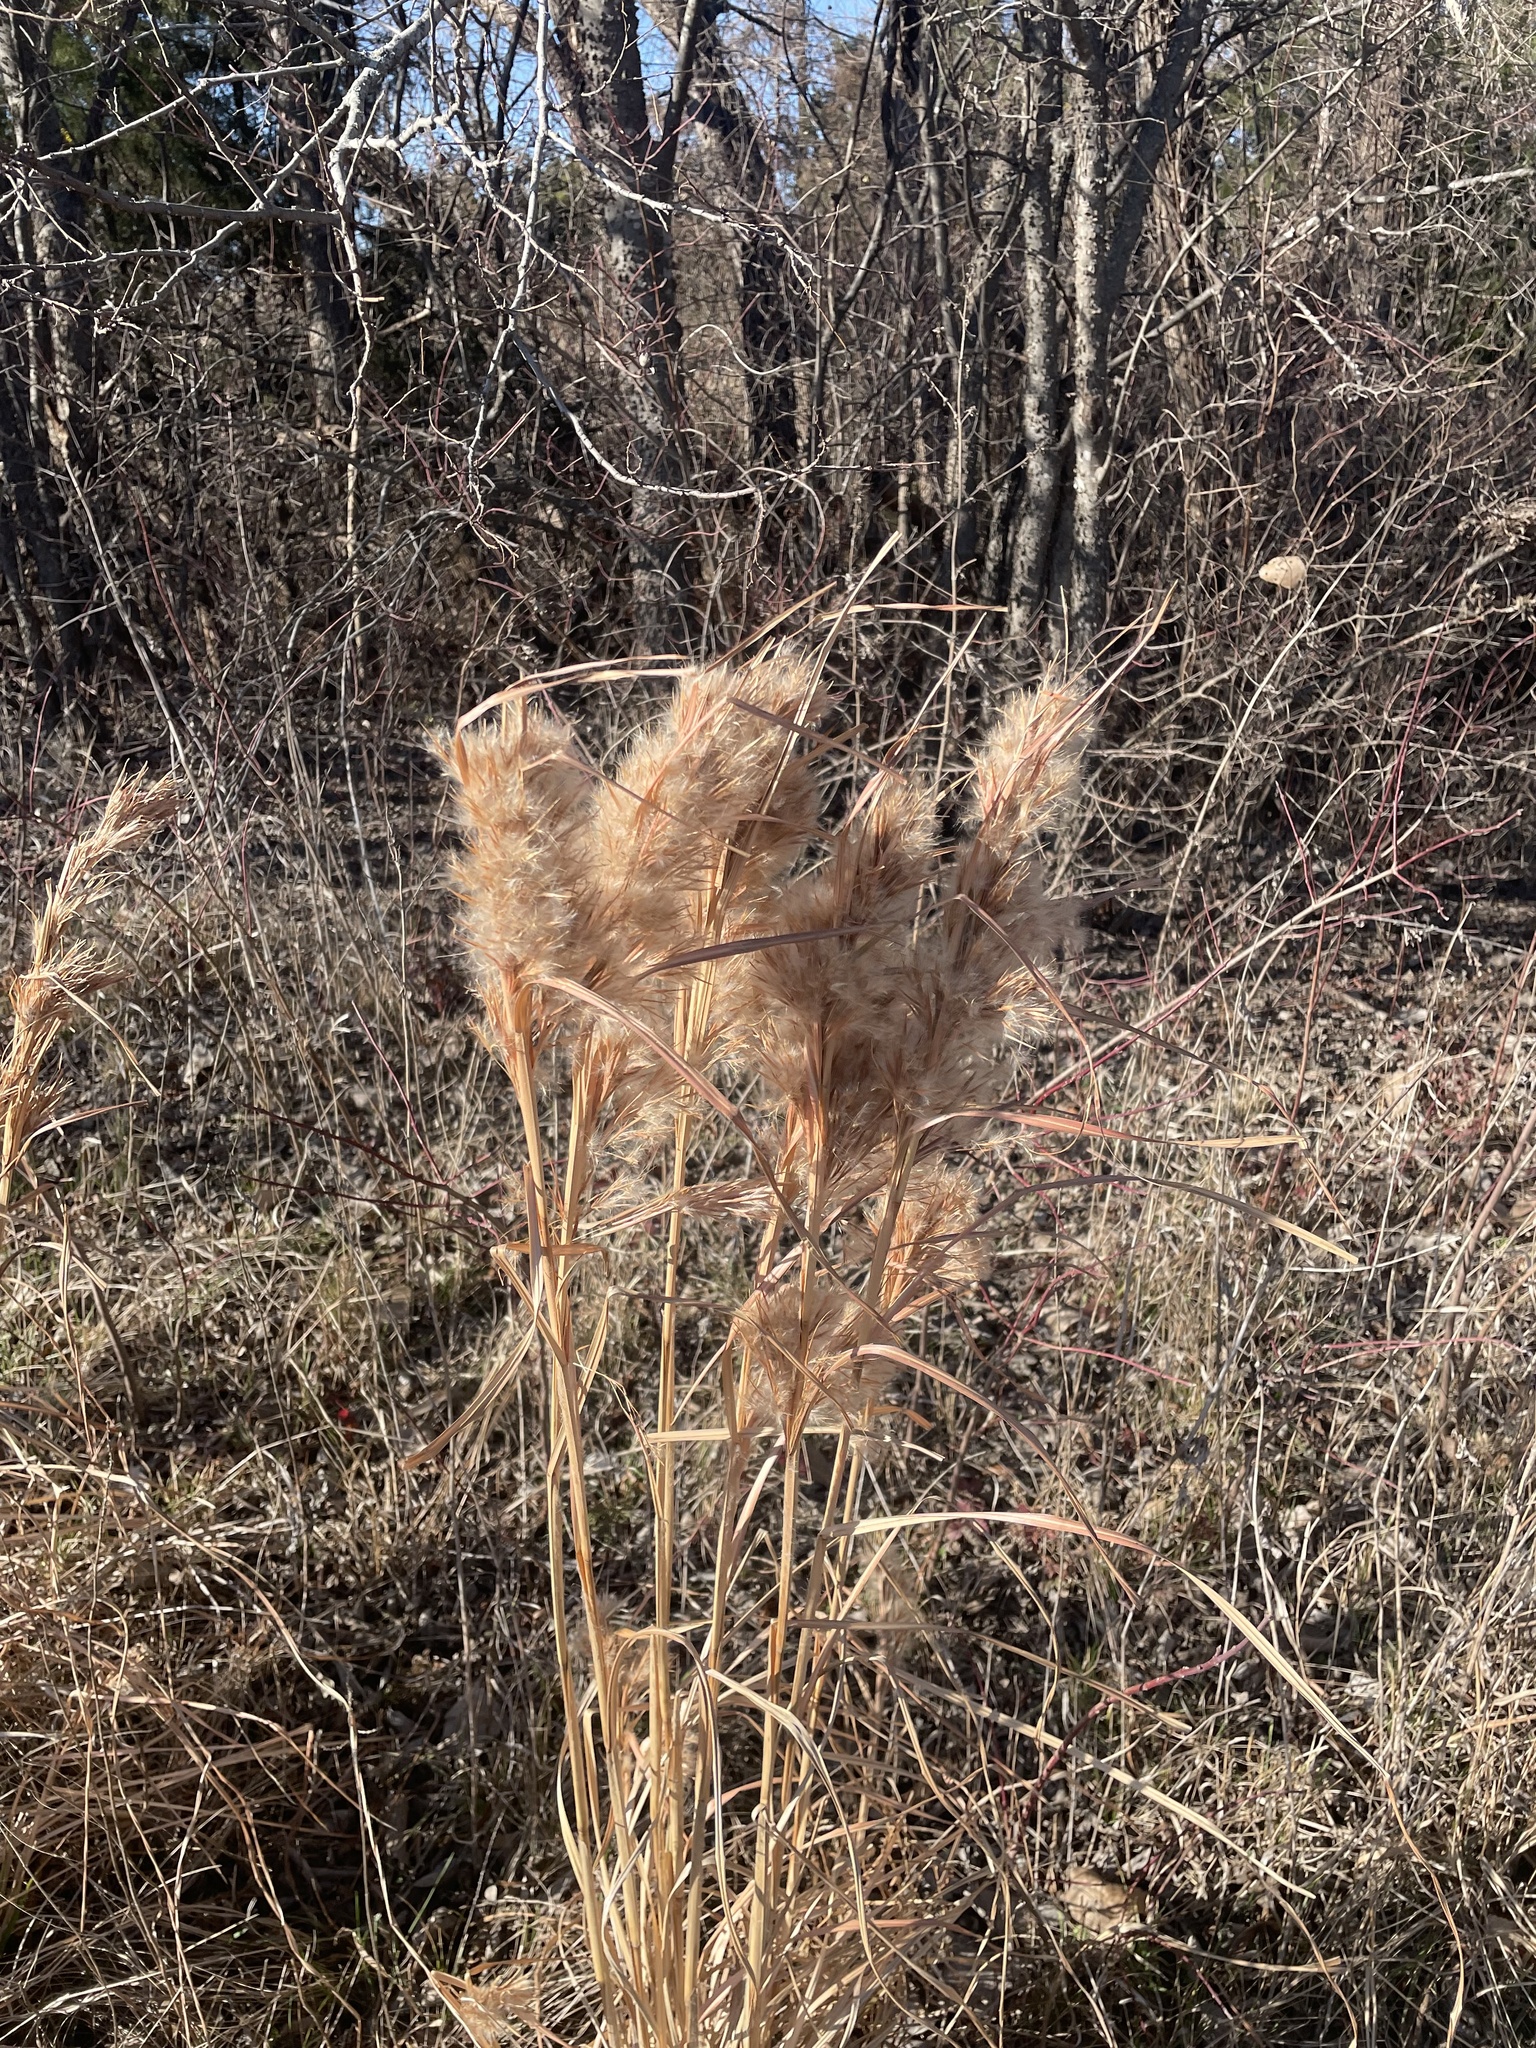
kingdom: Plantae
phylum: Tracheophyta
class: Liliopsida
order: Poales
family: Poaceae
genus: Andropogon
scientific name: Andropogon tenuispatheus
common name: Bushy bluestem
